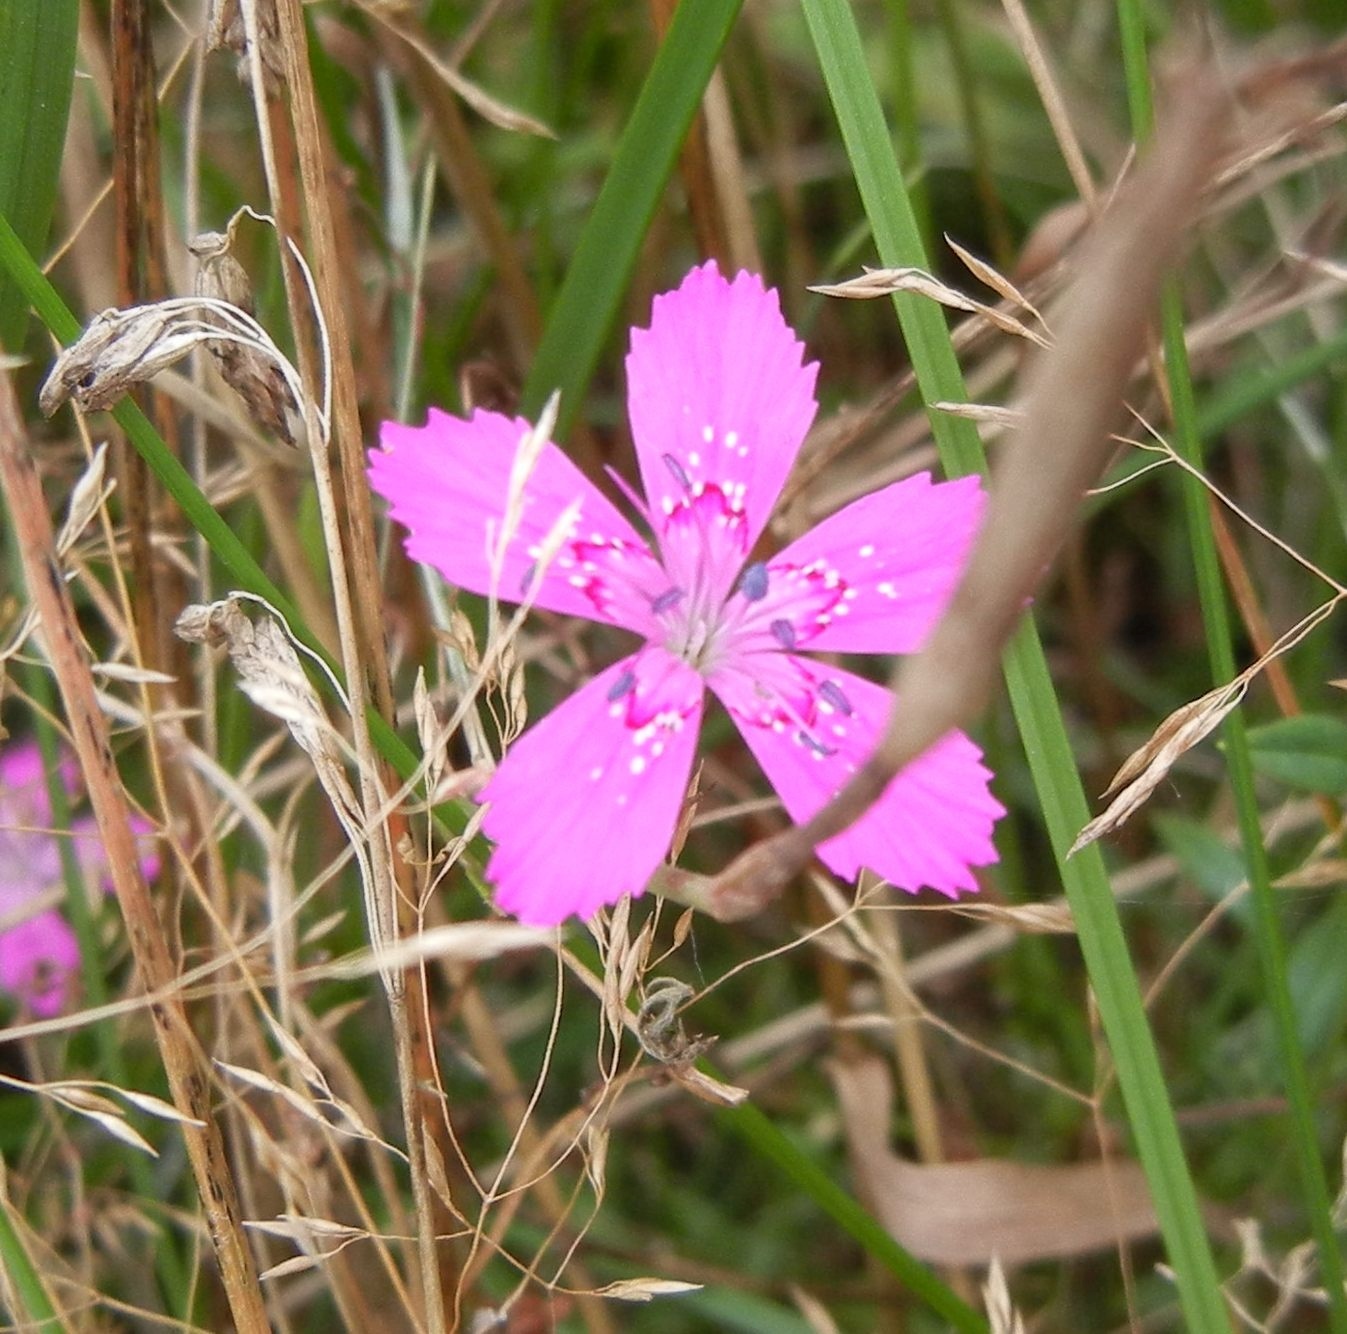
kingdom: Plantae
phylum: Tracheophyta
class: Magnoliopsida
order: Caryophyllales
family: Caryophyllaceae
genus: Dianthus
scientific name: Dianthus deltoides
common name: Maiden pink
